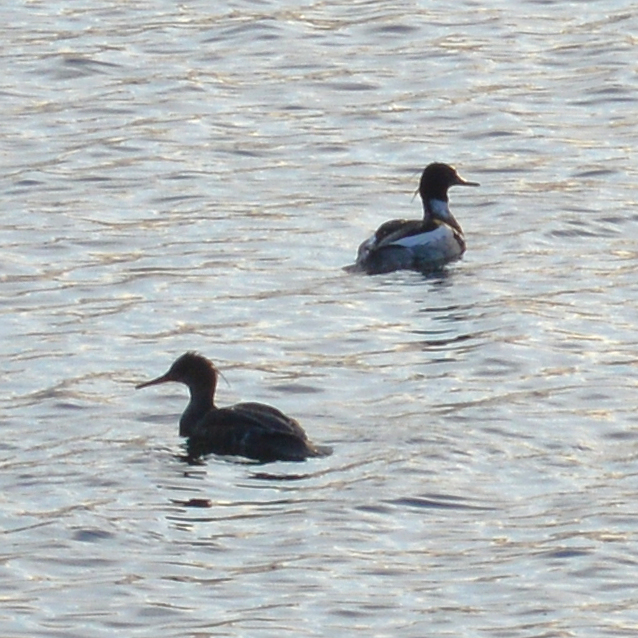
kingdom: Animalia
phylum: Chordata
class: Aves
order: Anseriformes
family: Anatidae
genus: Mergus
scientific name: Mergus serrator
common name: Red-breasted merganser
